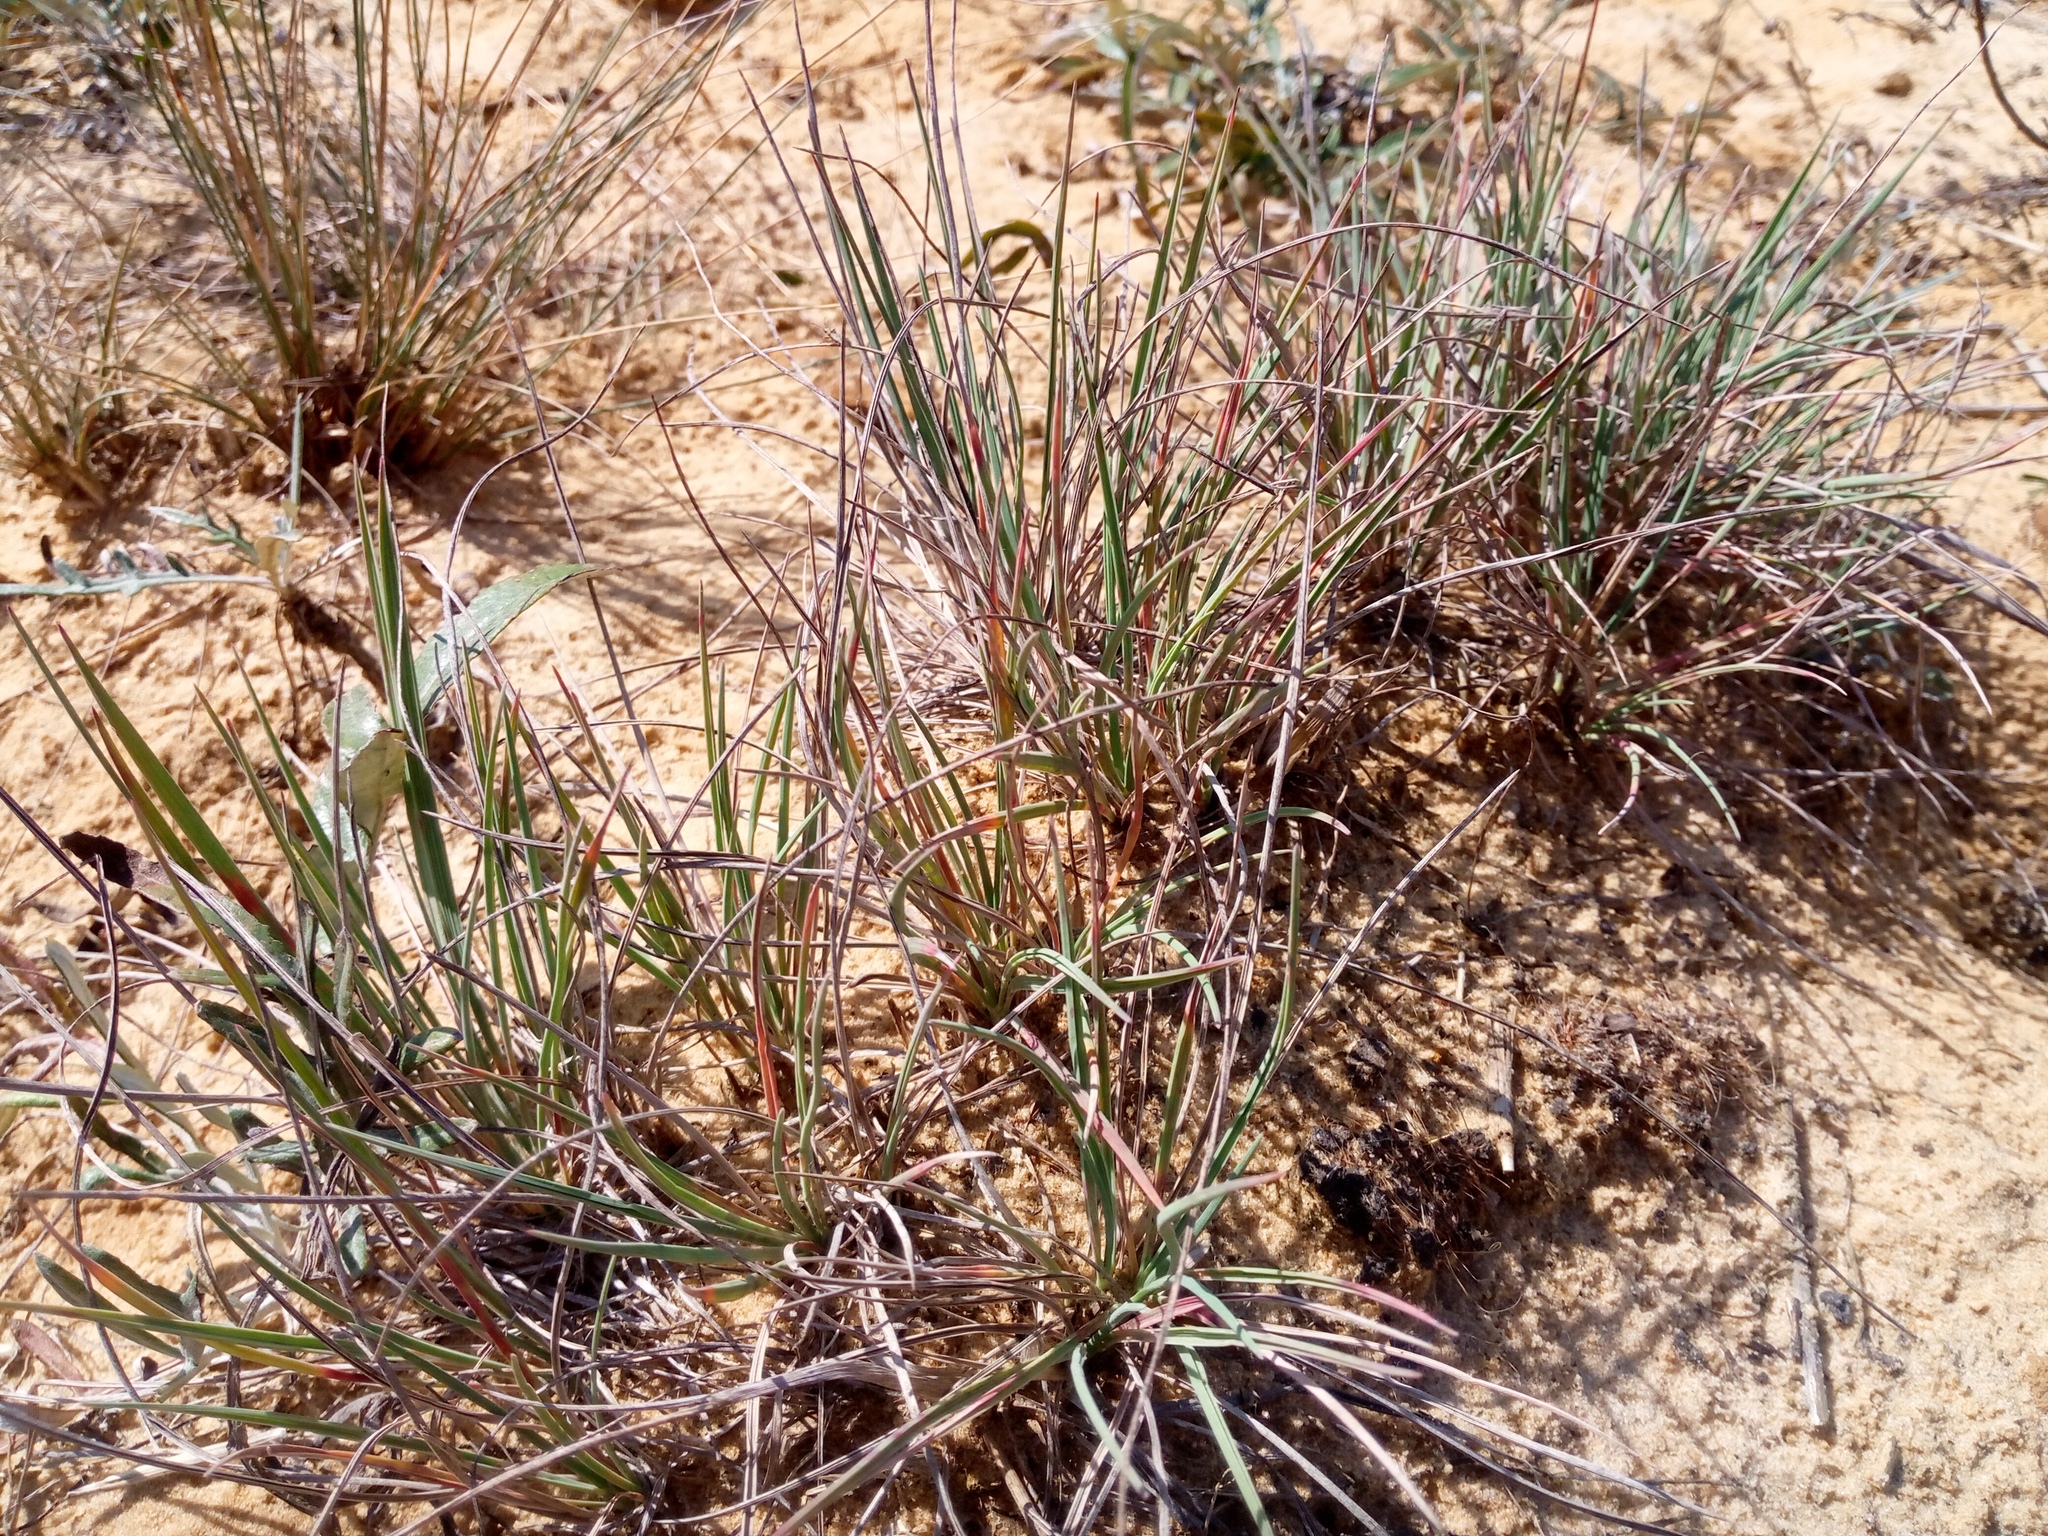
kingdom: Plantae
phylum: Tracheophyta
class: Liliopsida
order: Poales
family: Poaceae
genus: Koeleria
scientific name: Koeleria glauca
